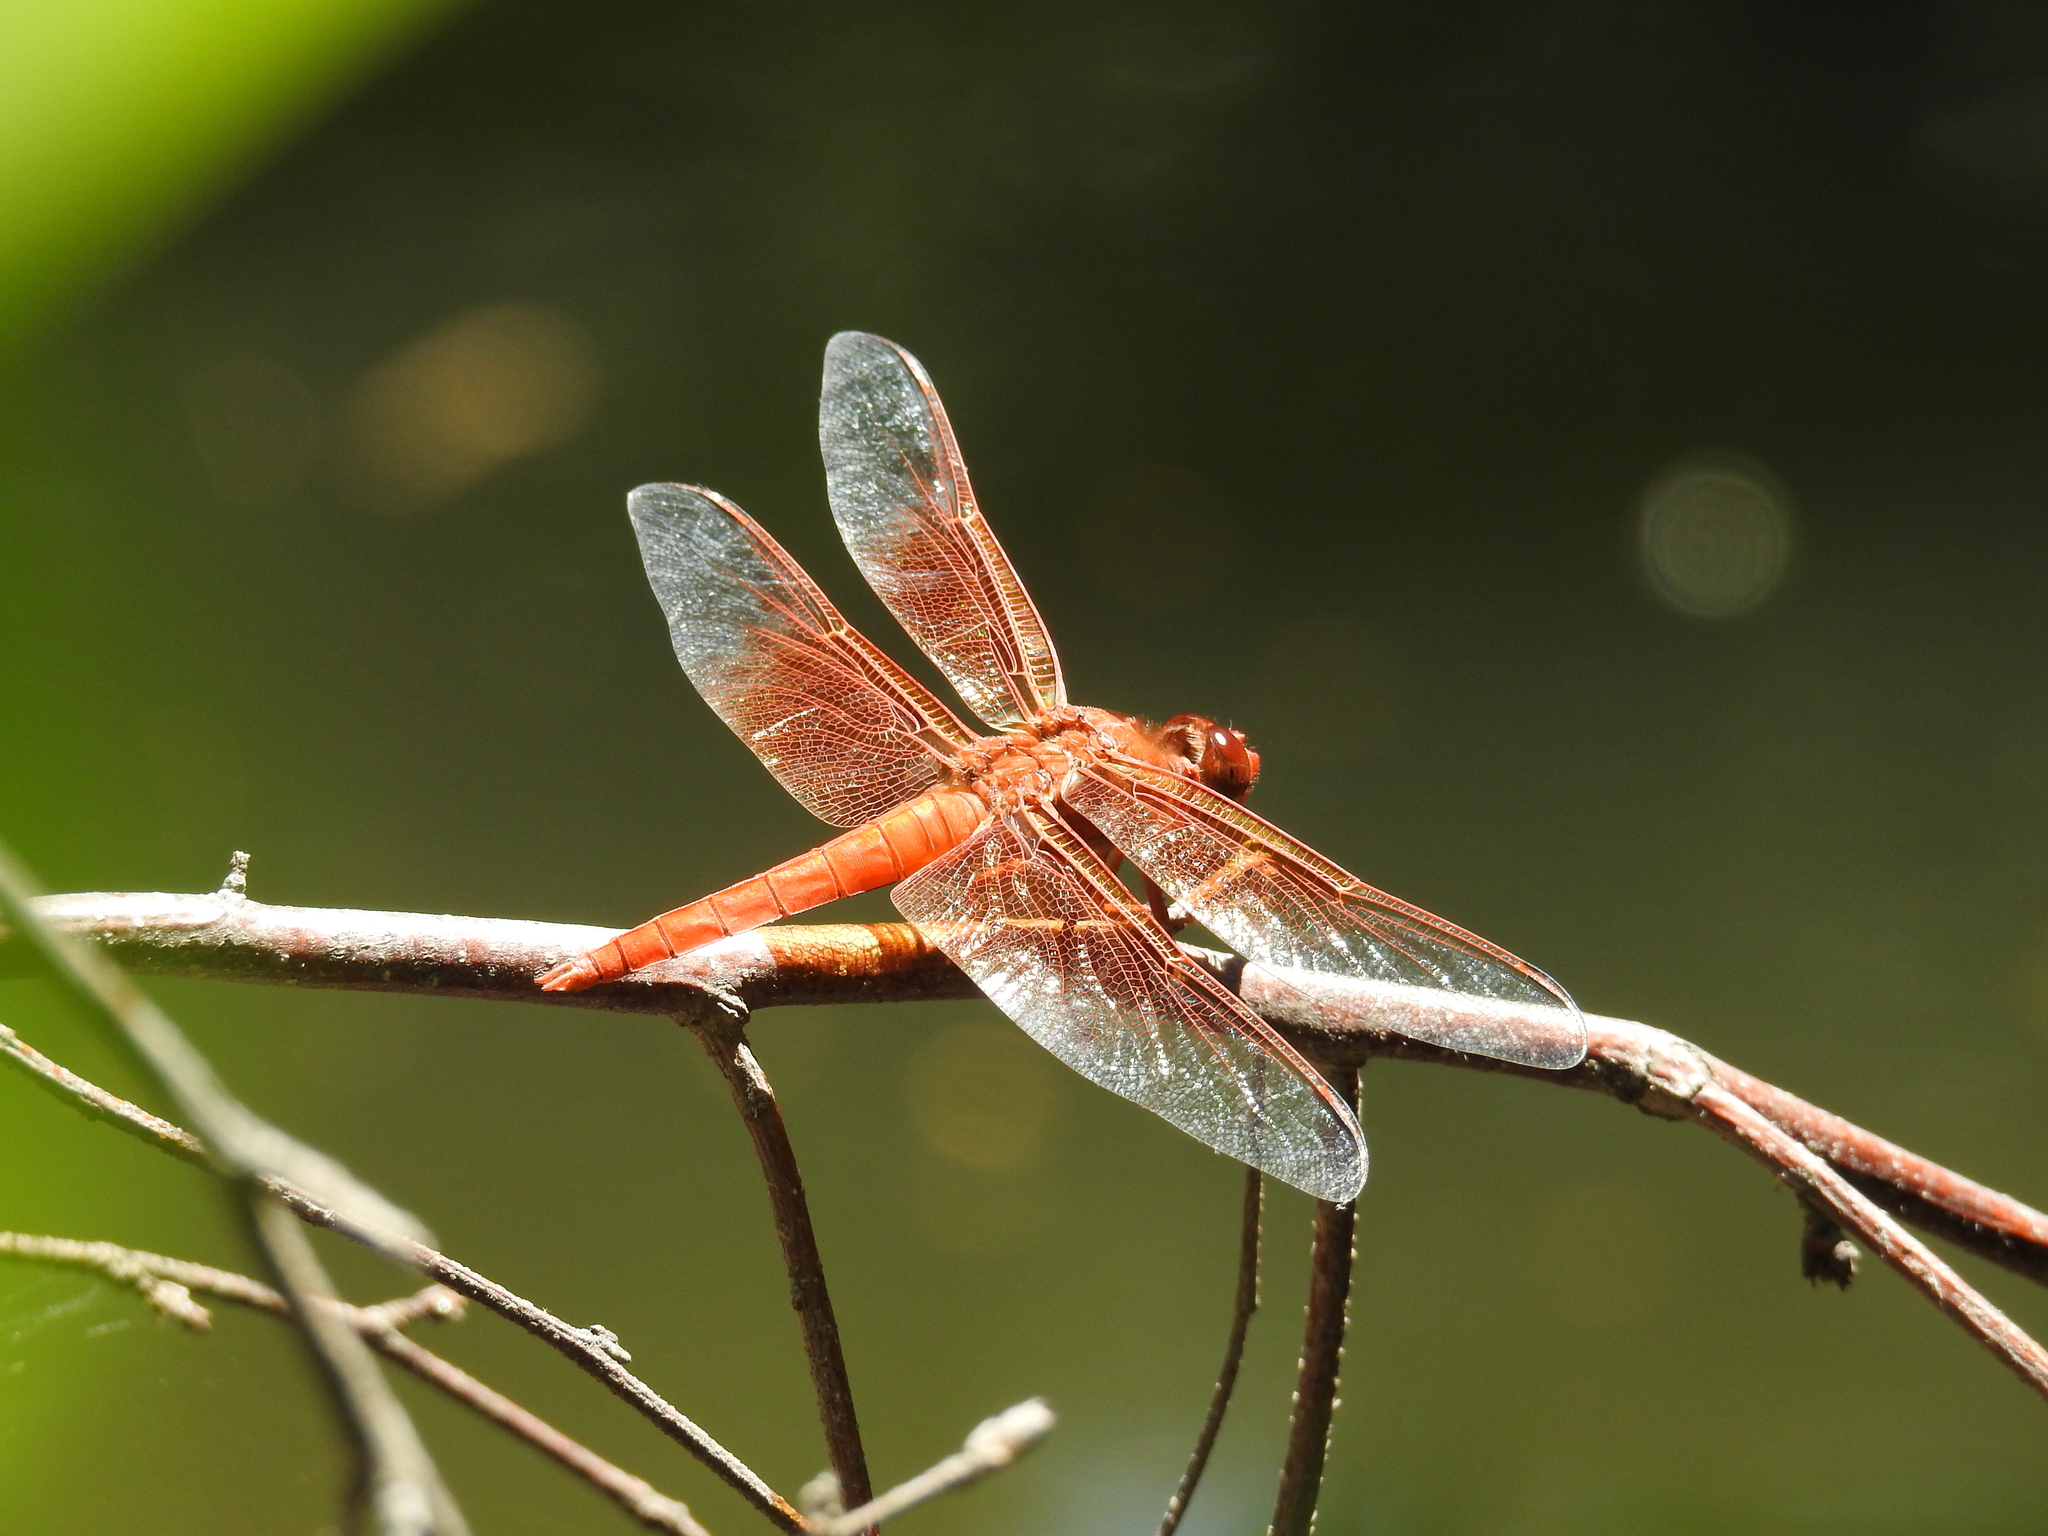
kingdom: Animalia
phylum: Arthropoda
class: Insecta
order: Odonata
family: Libellulidae
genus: Libellula
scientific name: Libellula saturata
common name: Flame skimmer
